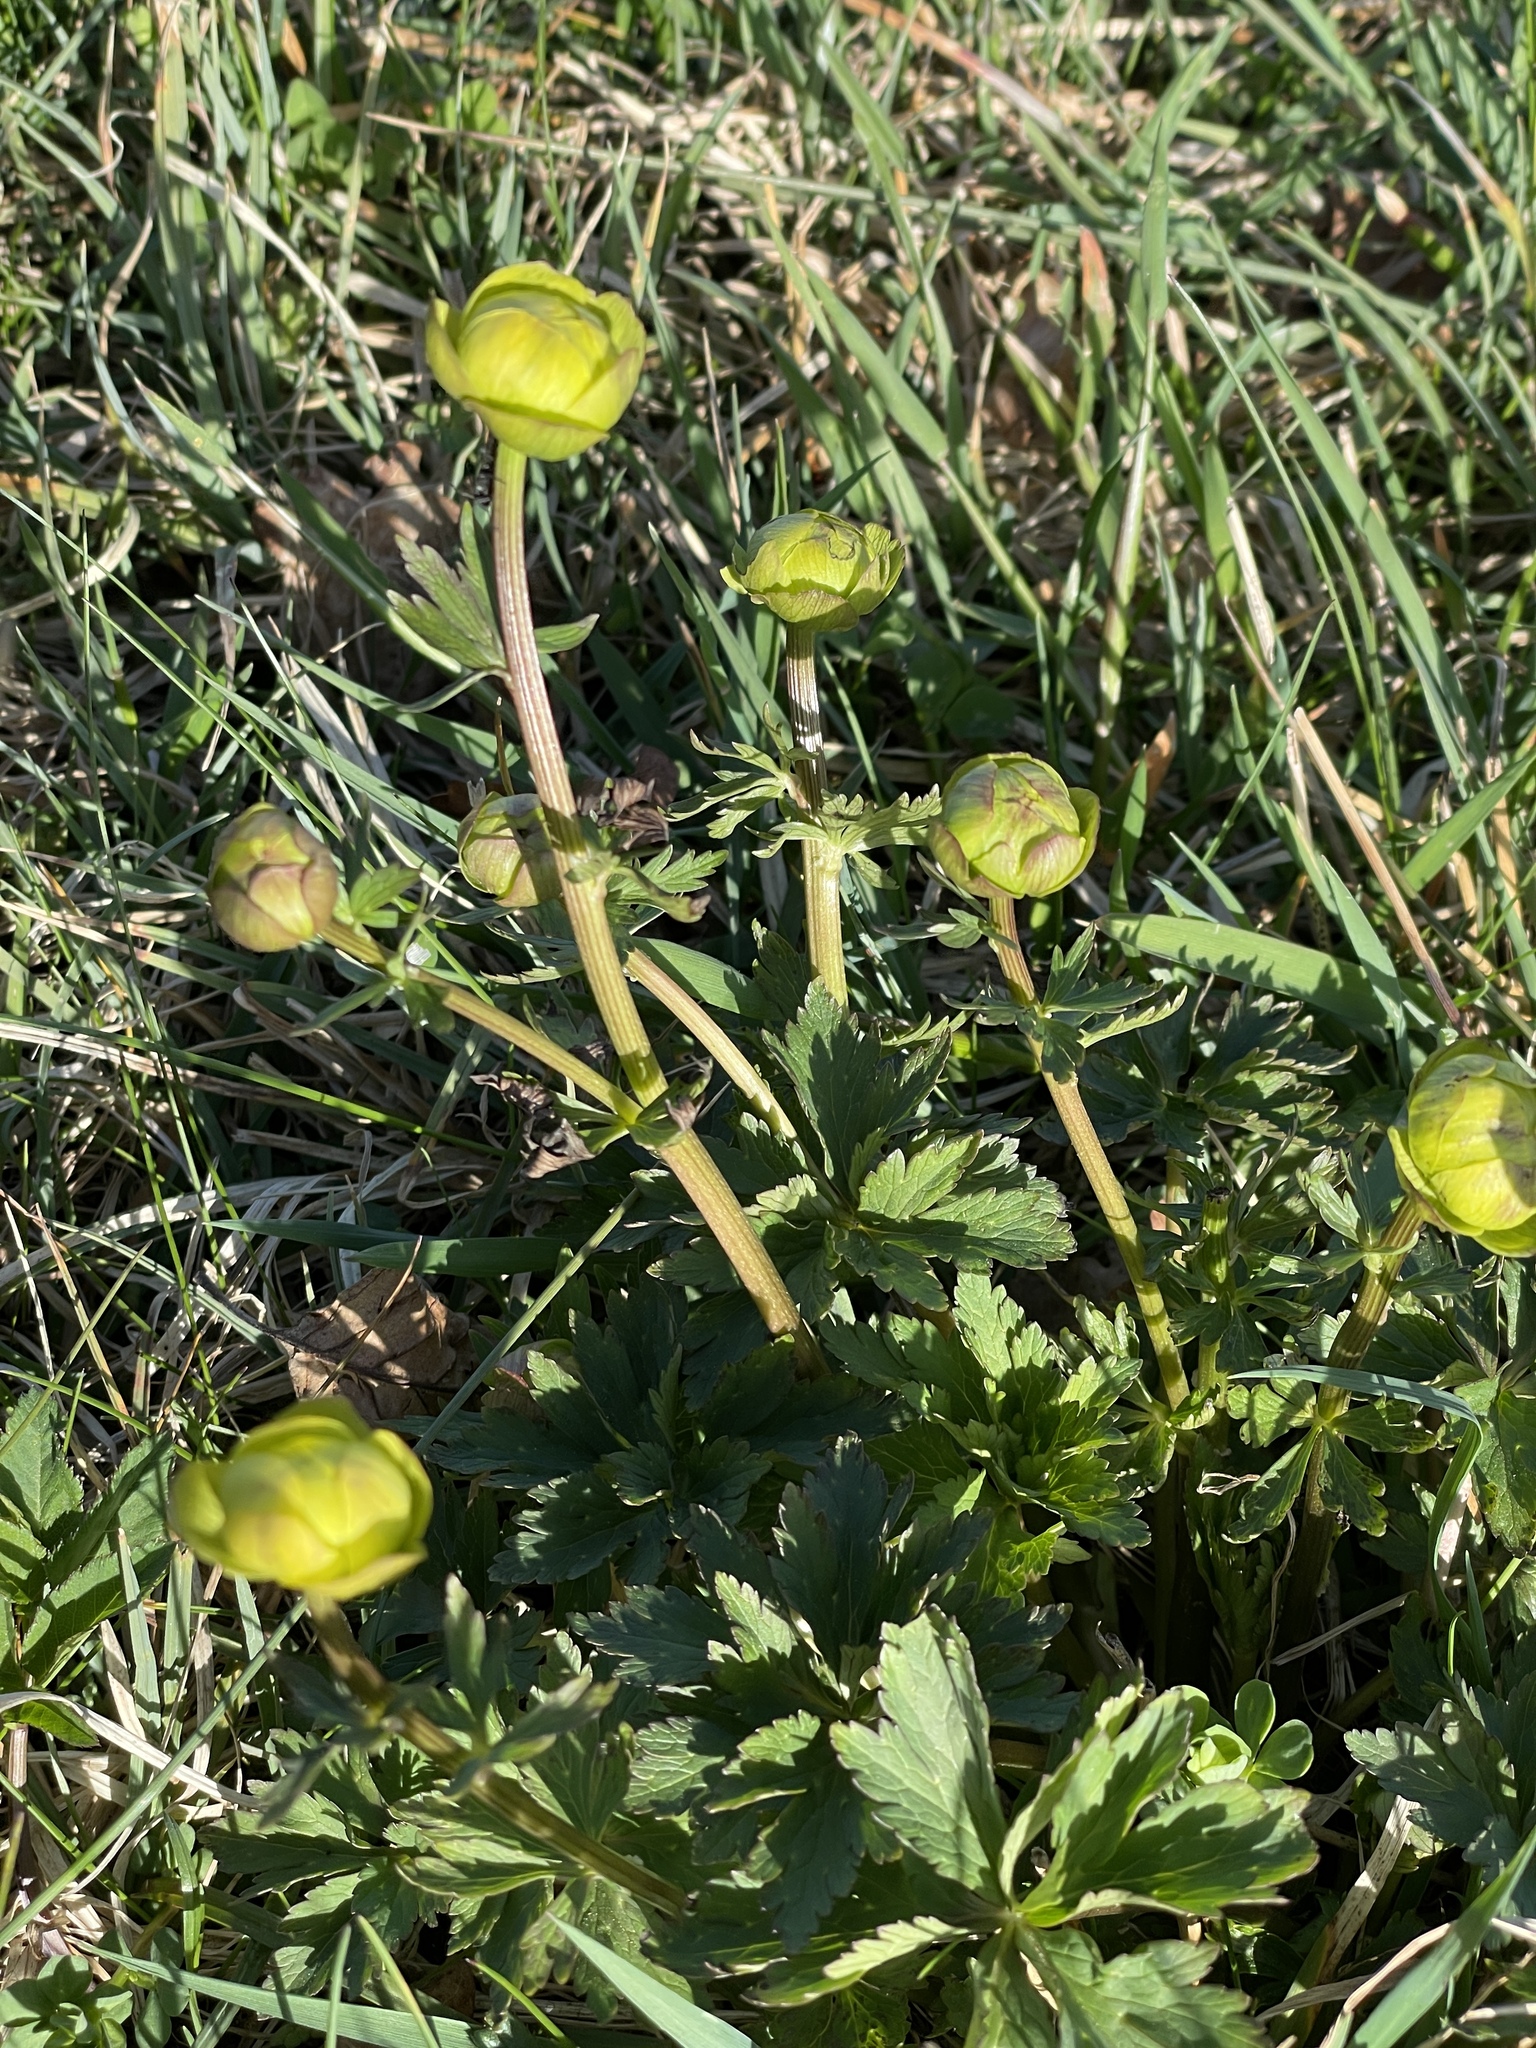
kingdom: Plantae
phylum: Tracheophyta
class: Magnoliopsida
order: Ranunculales
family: Ranunculaceae
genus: Trollius
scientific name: Trollius europaeus
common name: European globeflower
